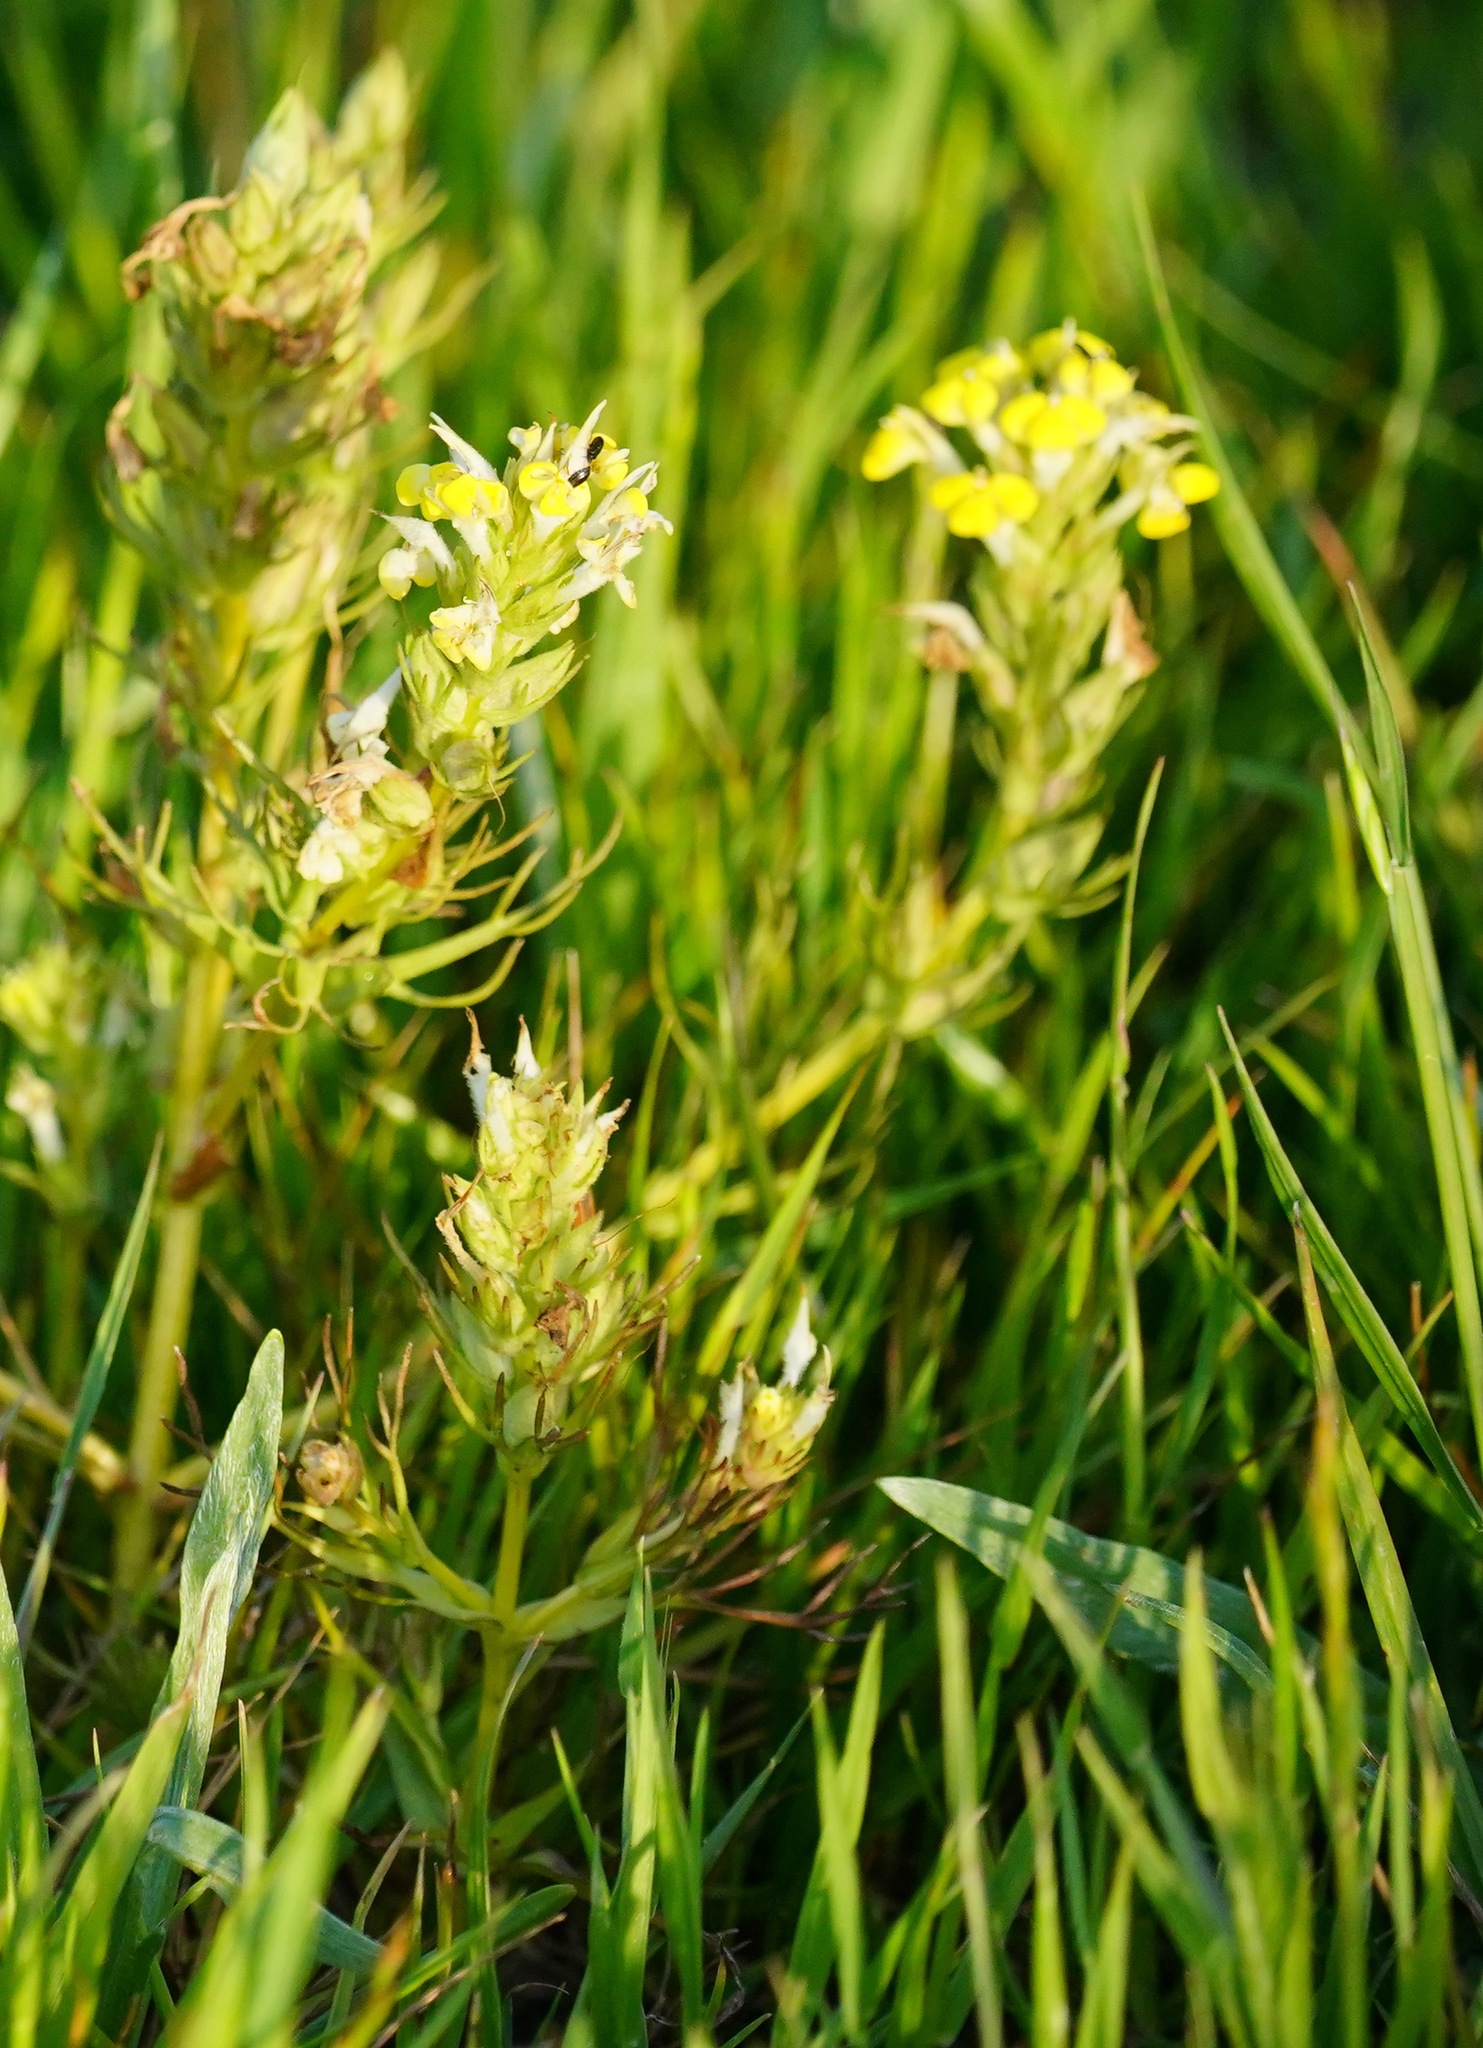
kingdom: Plantae
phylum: Tracheophyta
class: Magnoliopsida
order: Lamiales
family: Orobanchaceae
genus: Triphysaria
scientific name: Triphysaria versicolor
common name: Bearded false owl-clover
